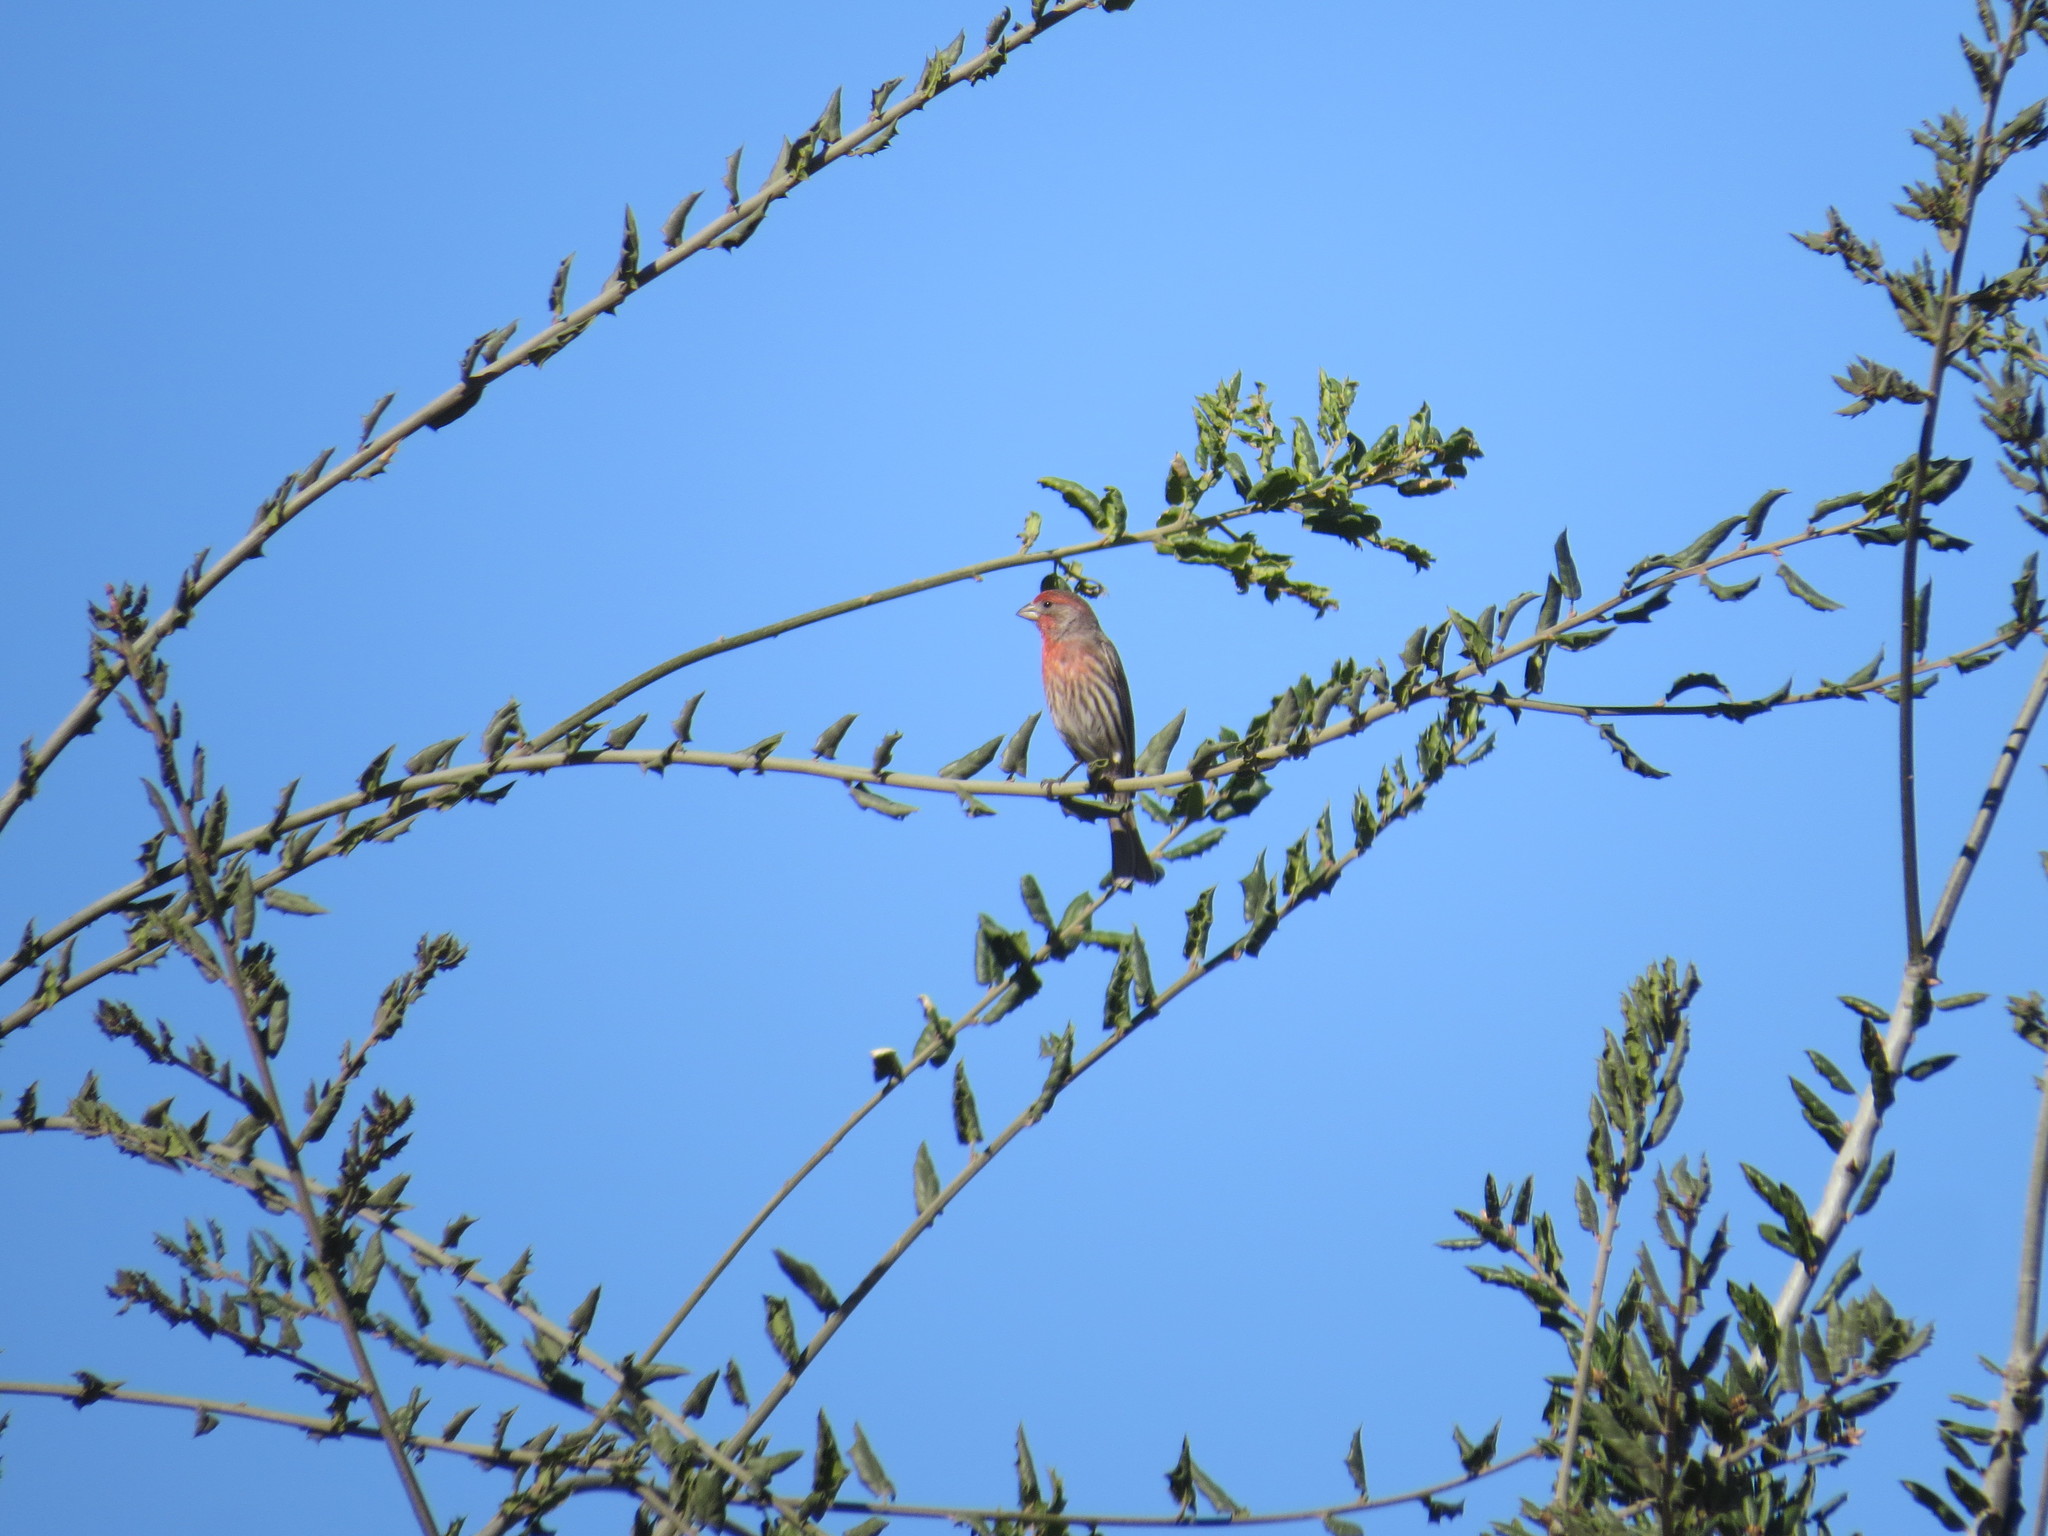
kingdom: Animalia
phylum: Chordata
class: Aves
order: Passeriformes
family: Fringillidae
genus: Haemorhous
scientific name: Haemorhous mexicanus
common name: House finch
